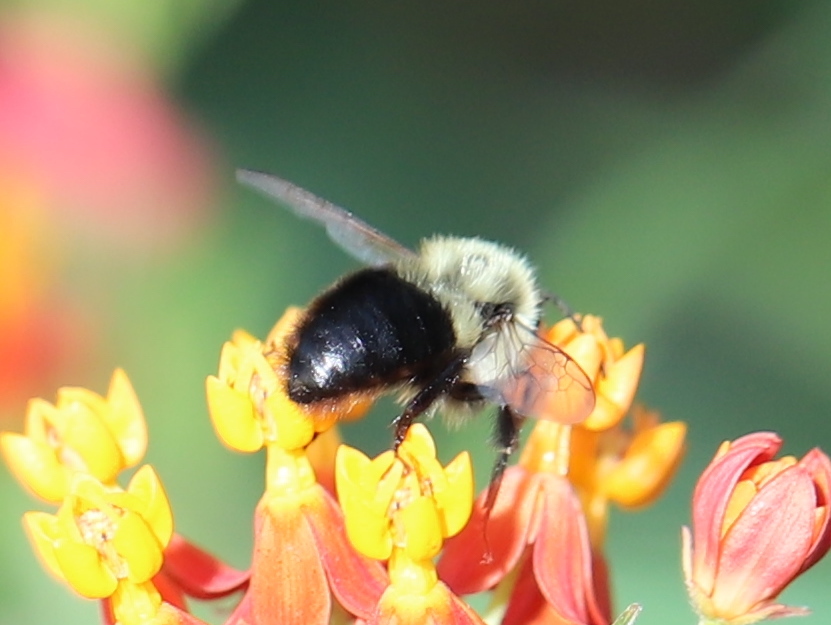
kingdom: Animalia
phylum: Arthropoda
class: Insecta
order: Hymenoptera
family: Apidae
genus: Bombus
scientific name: Bombus impatiens
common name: Common eastern bumble bee
